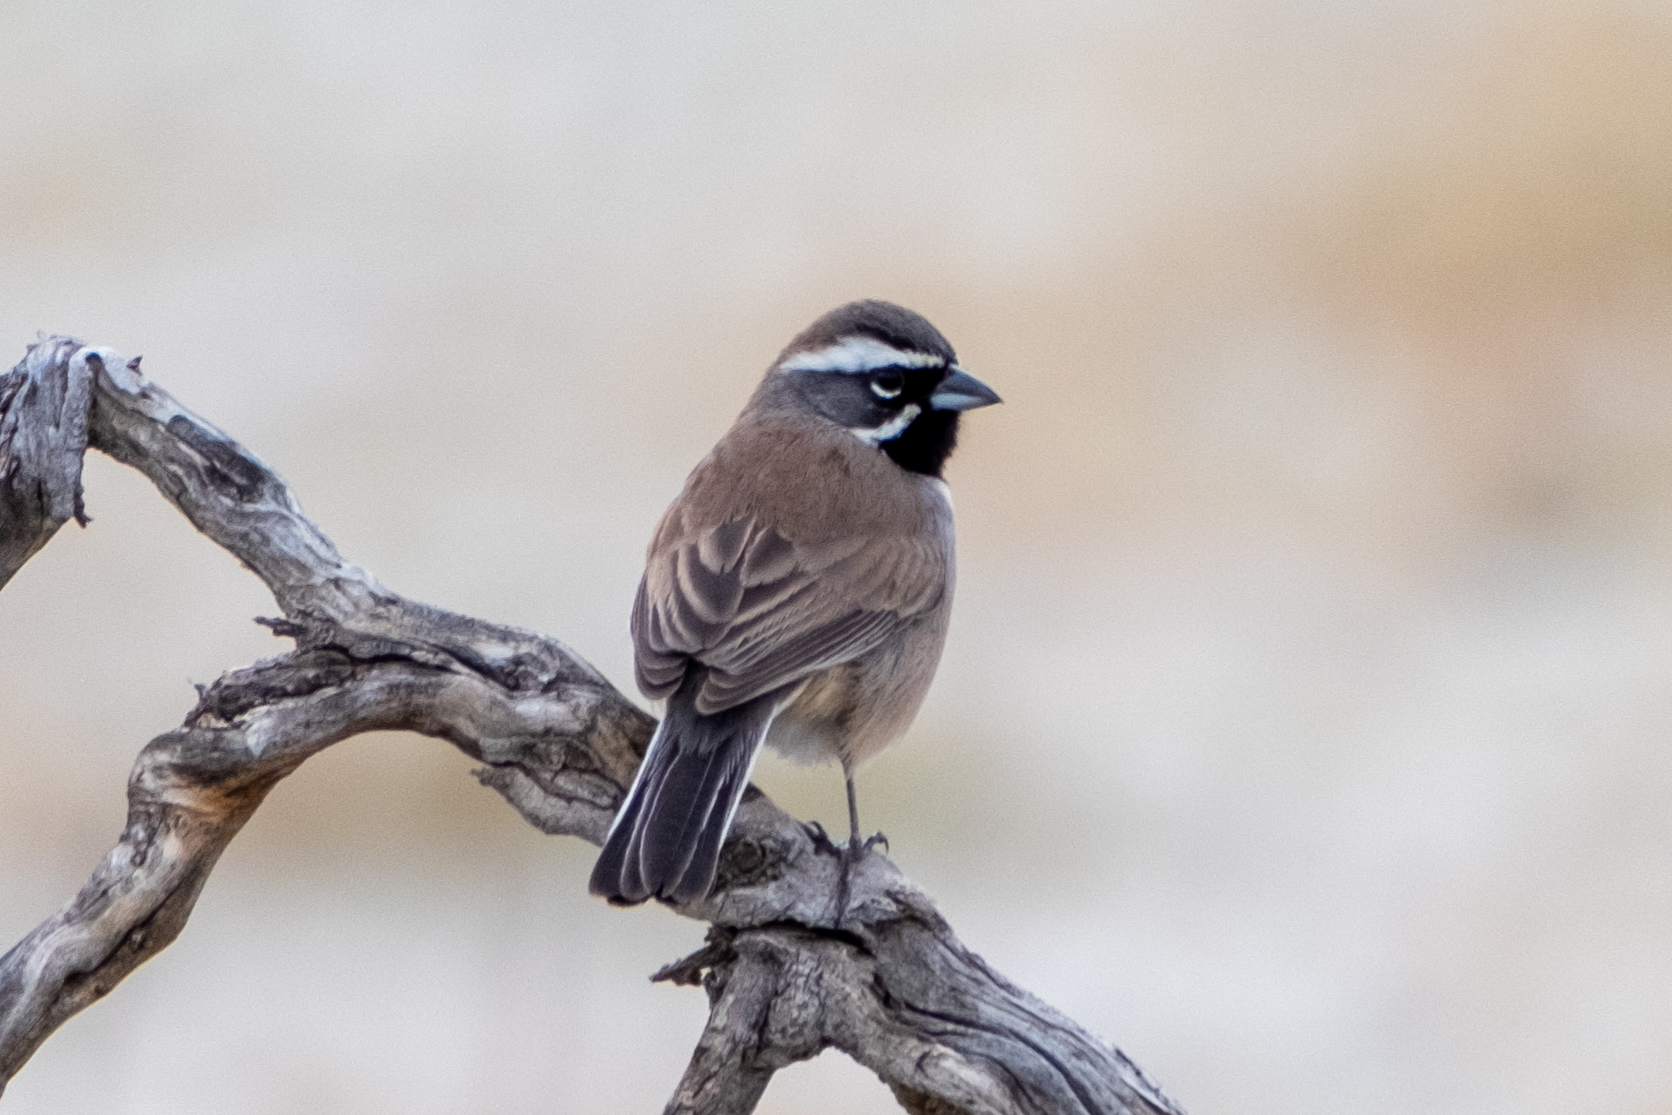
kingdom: Animalia
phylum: Chordata
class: Aves
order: Passeriformes
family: Passerellidae
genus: Amphispiza
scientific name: Amphispiza bilineata
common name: Black-throated sparrow
